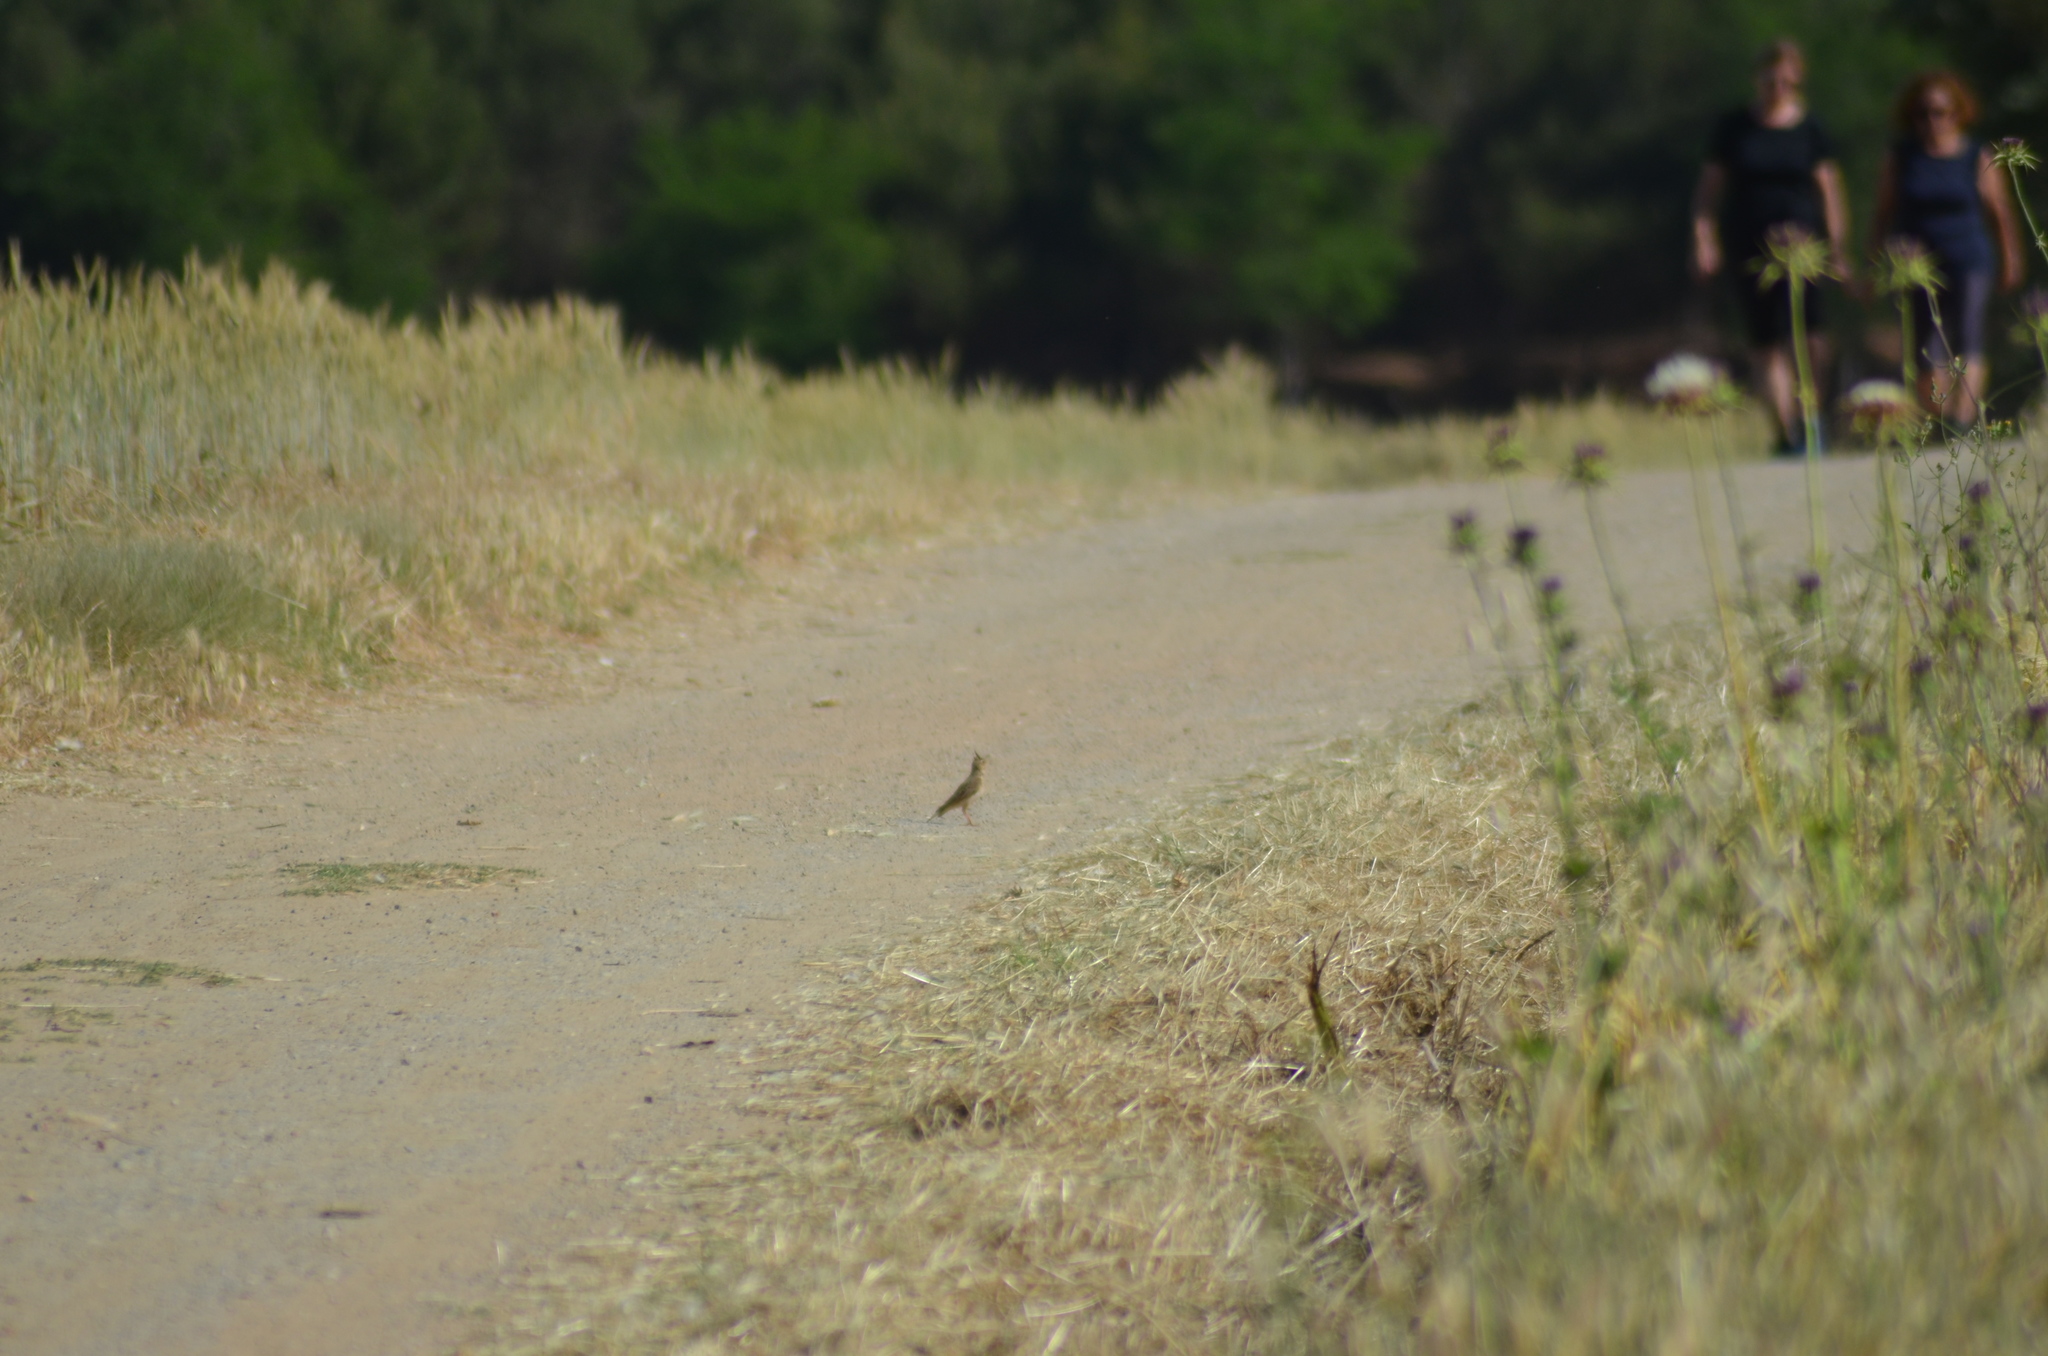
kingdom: Animalia
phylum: Chordata
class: Aves
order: Passeriformes
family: Alaudidae
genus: Galerida
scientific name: Galerida cristata
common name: Crested lark
